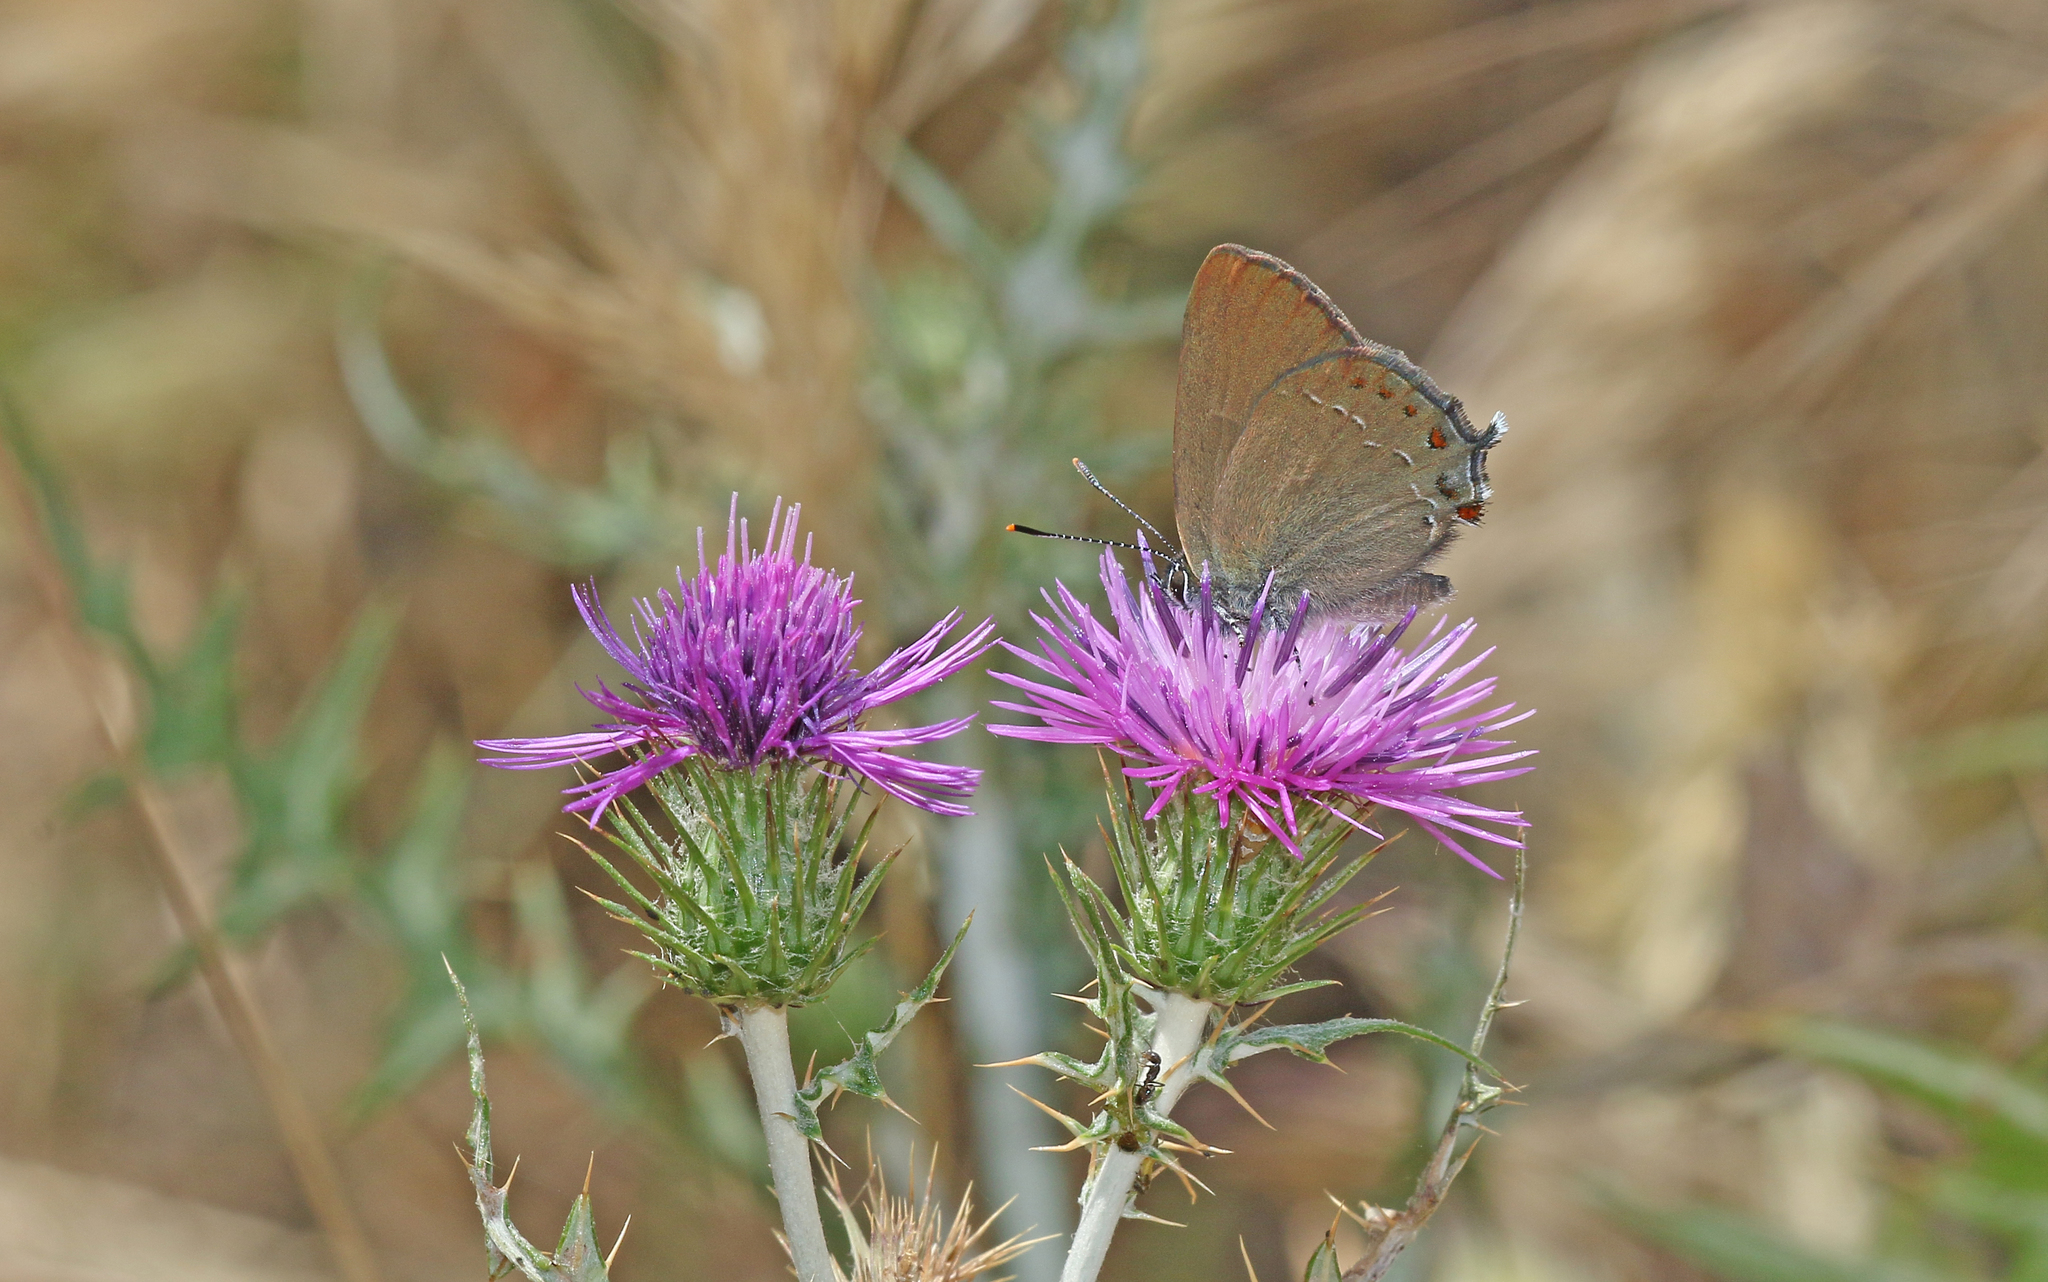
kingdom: Animalia
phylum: Arthropoda
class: Insecta
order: Lepidoptera
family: Lycaenidae
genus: Fixsenia
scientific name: Fixsenia esculi
